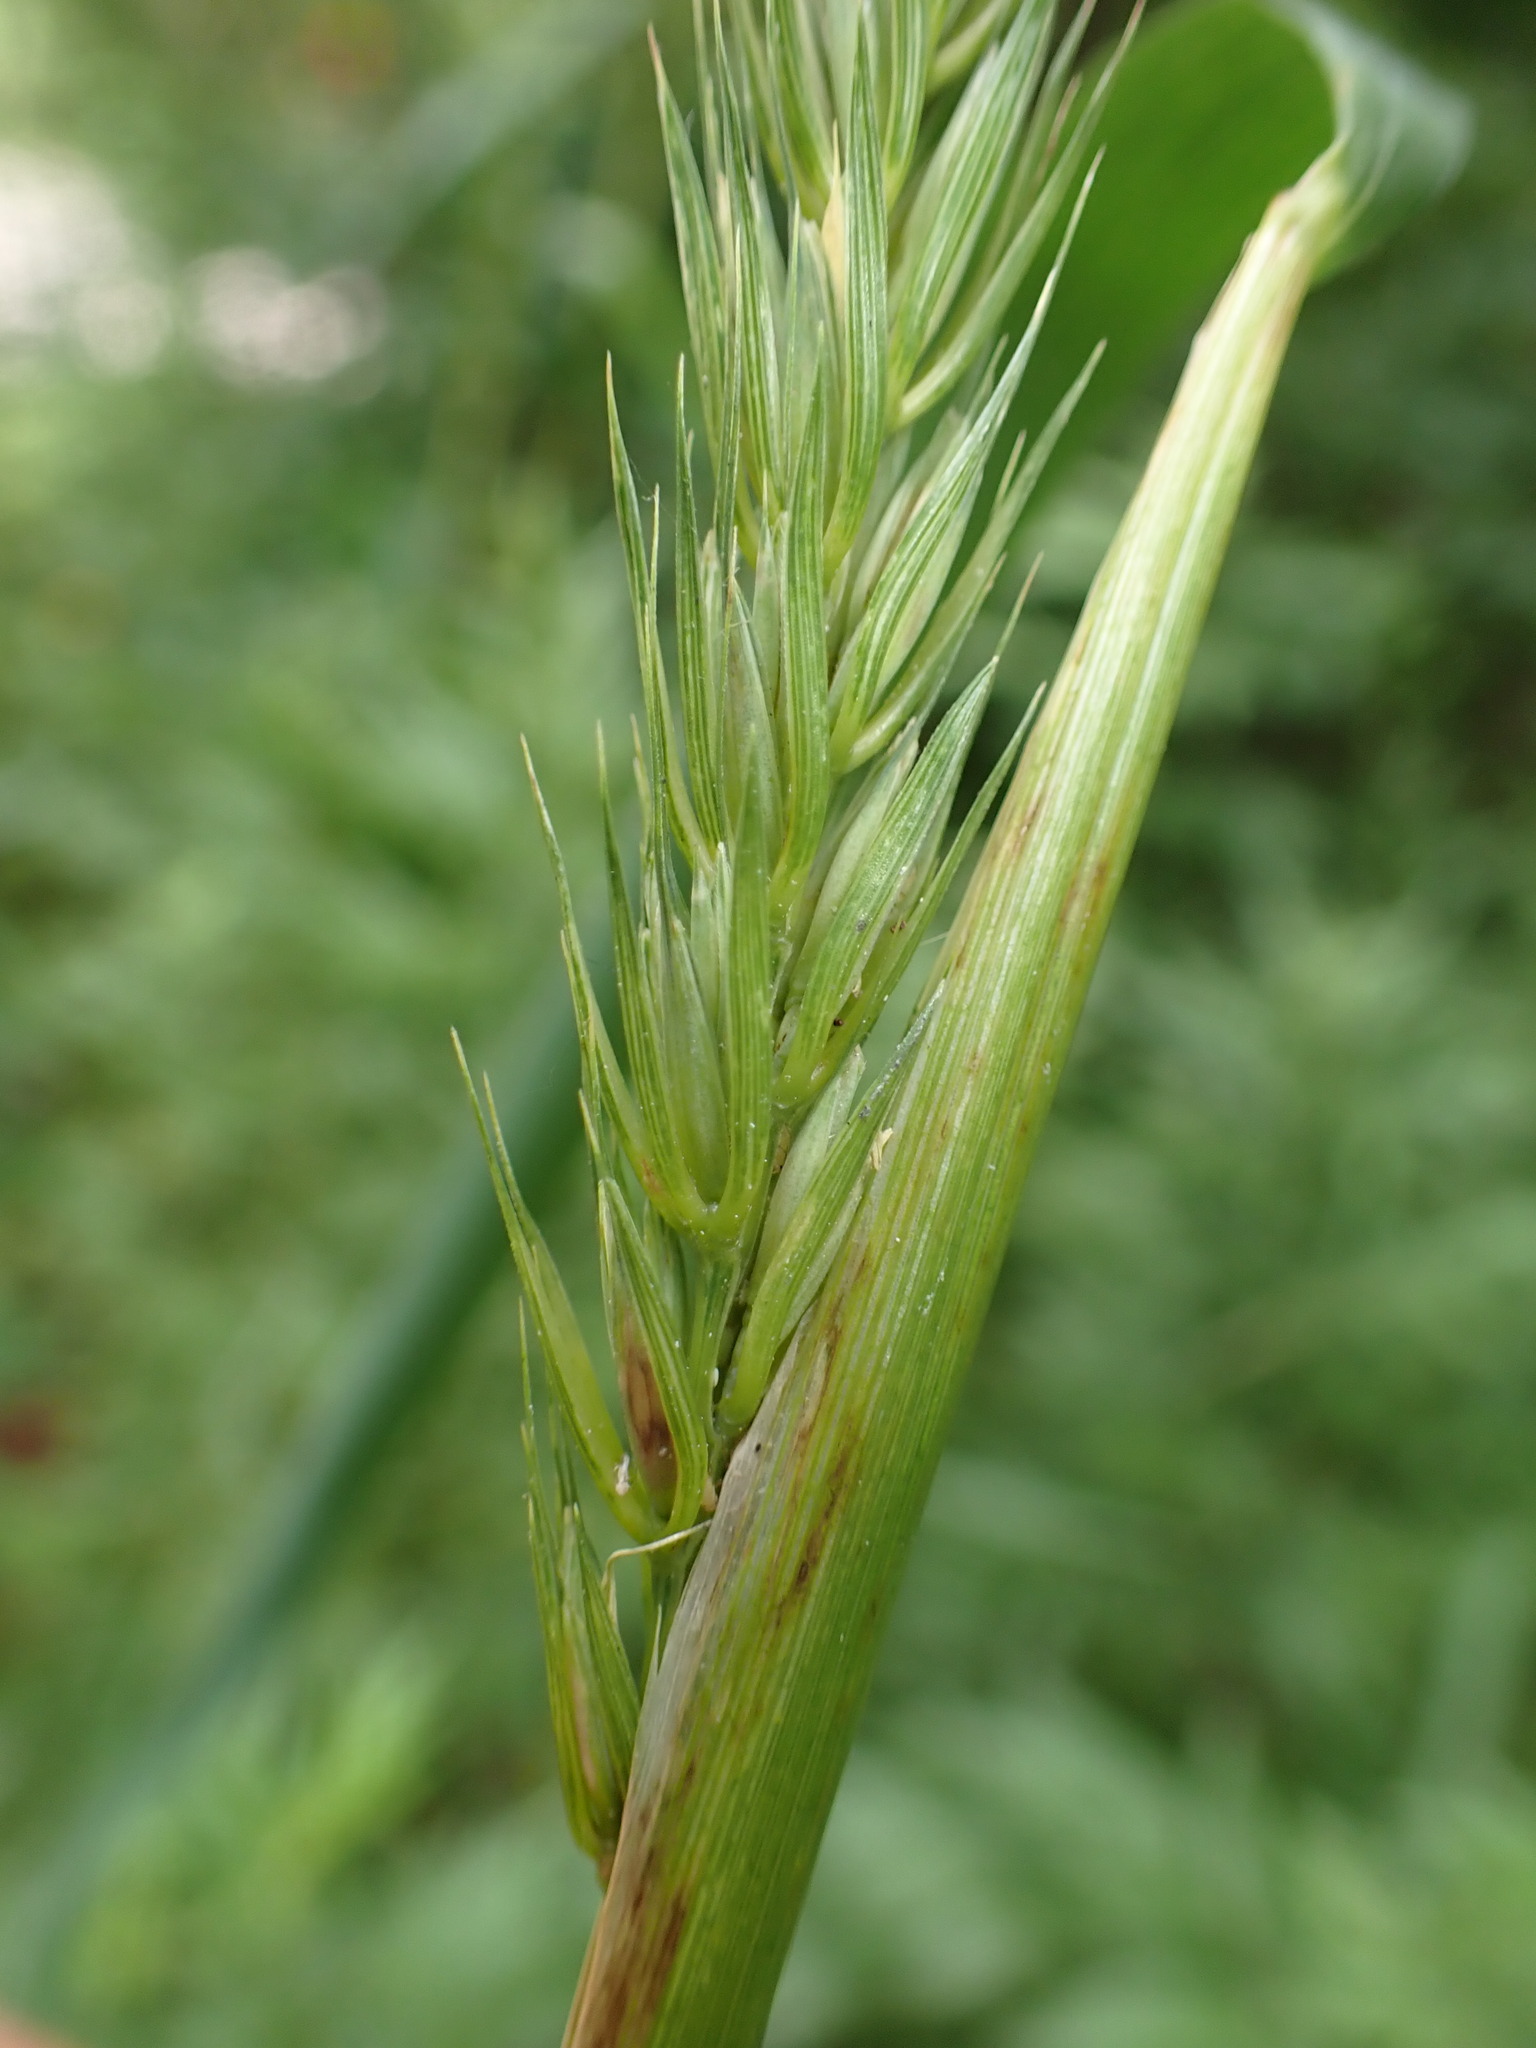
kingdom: Plantae
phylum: Tracheophyta
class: Liliopsida
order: Poales
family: Poaceae
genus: Elymus
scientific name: Elymus virginicus
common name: Common eastern wildrye
